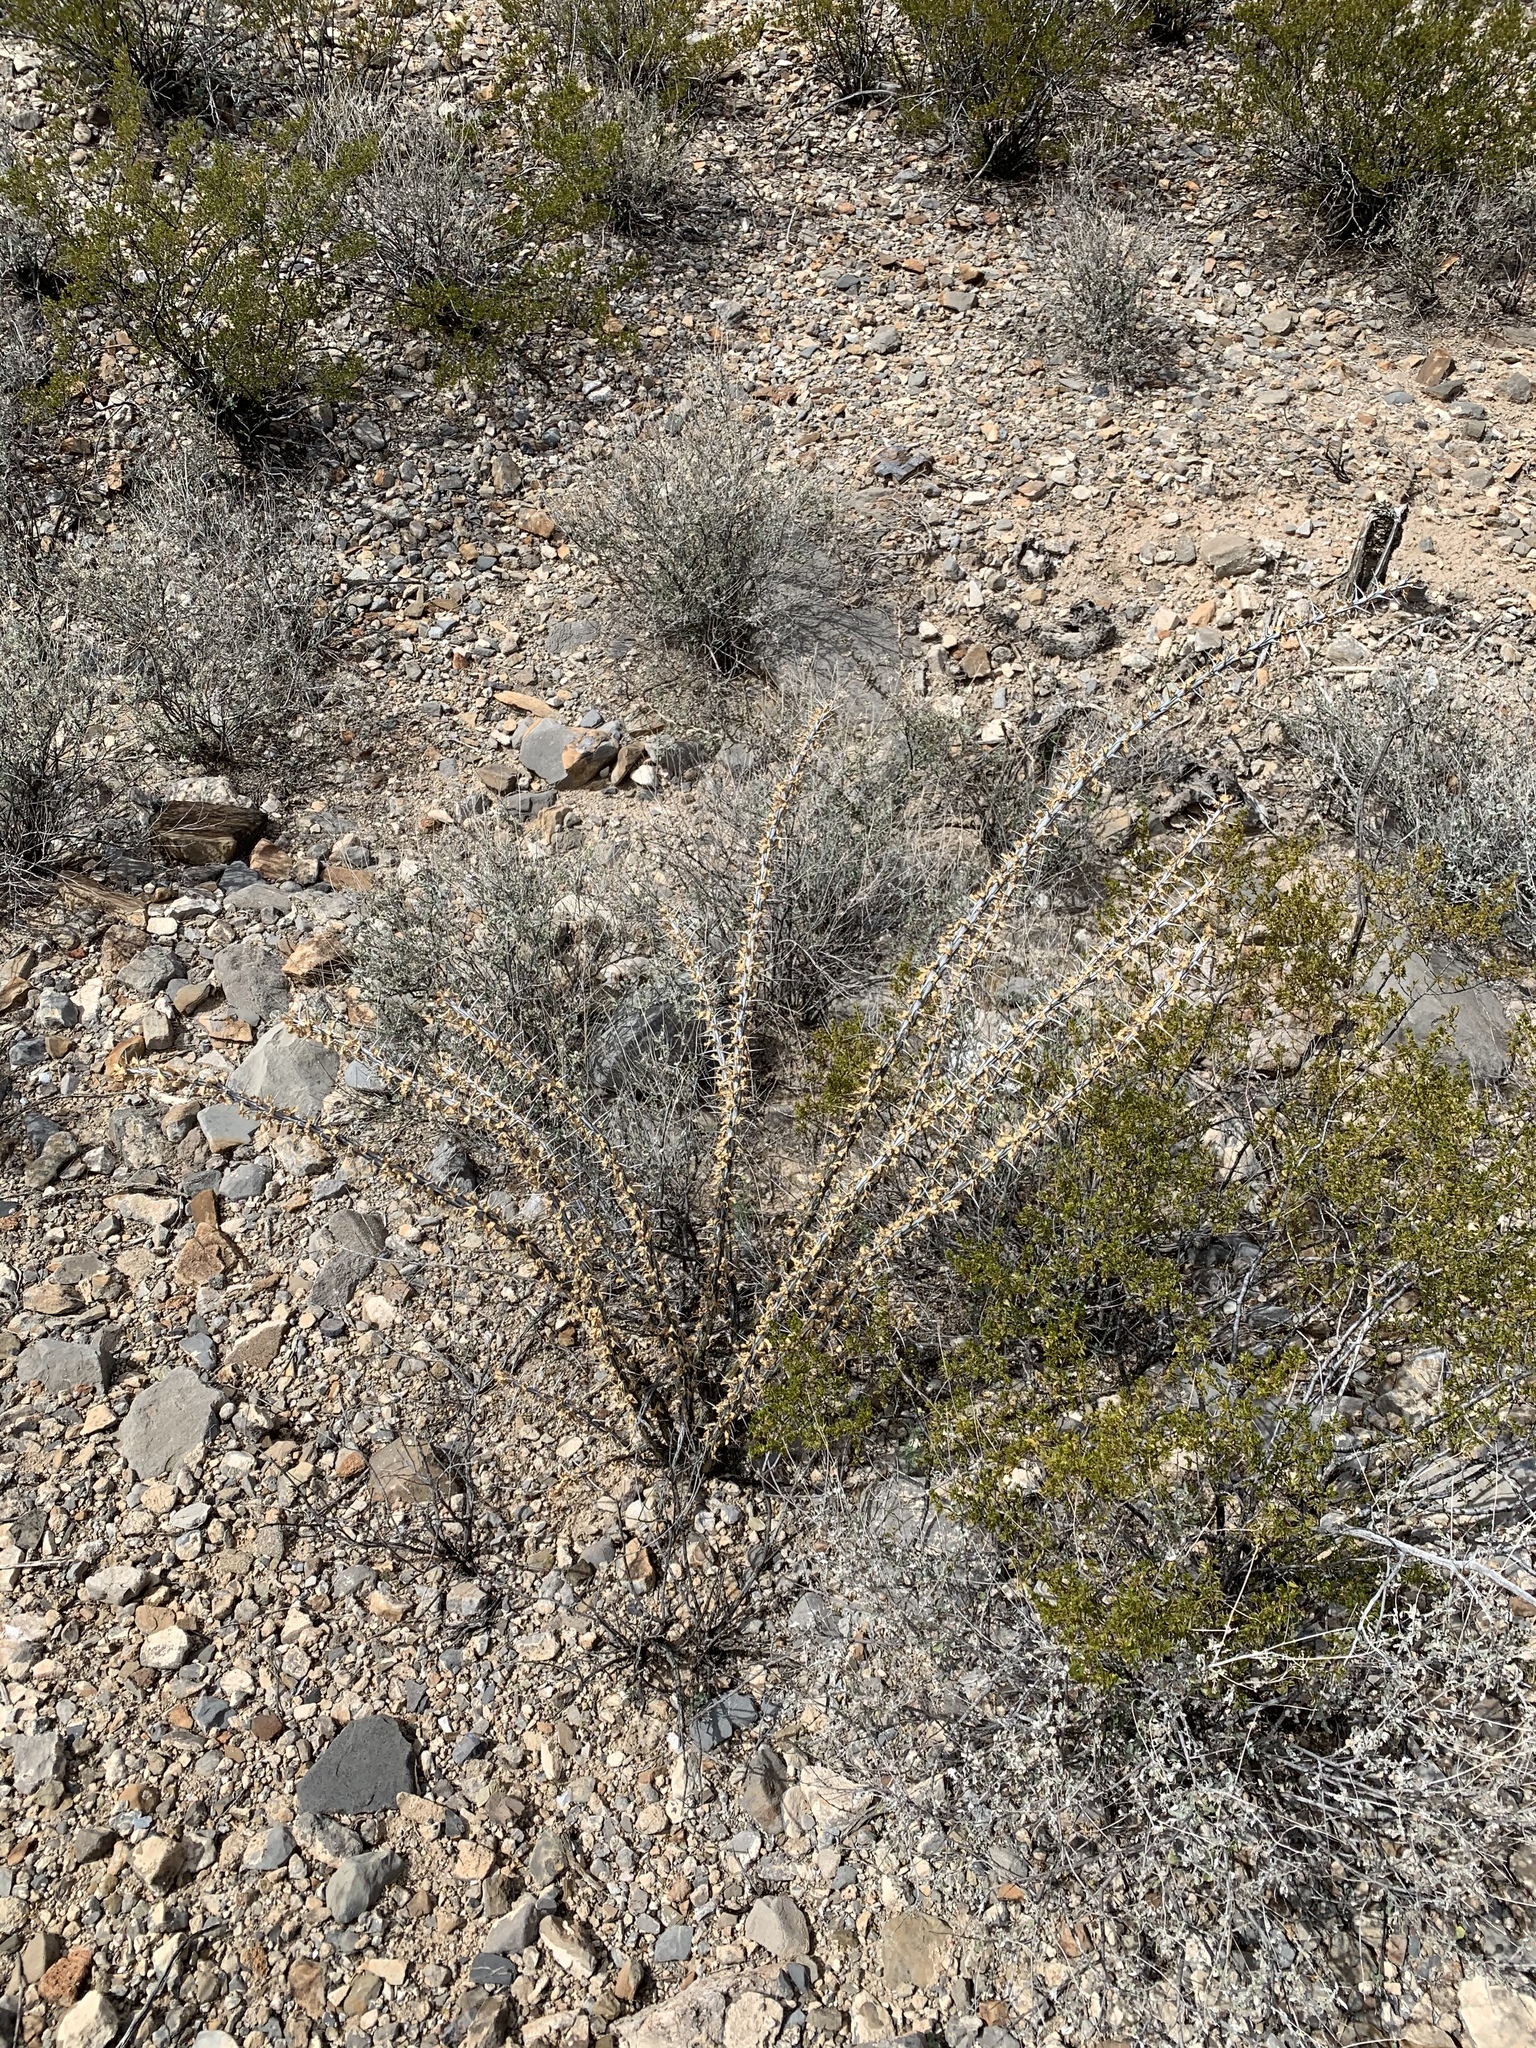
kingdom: Plantae
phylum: Tracheophyta
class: Magnoliopsida
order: Ericales
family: Fouquieriaceae
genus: Fouquieria
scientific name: Fouquieria splendens
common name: Vine-cactus
